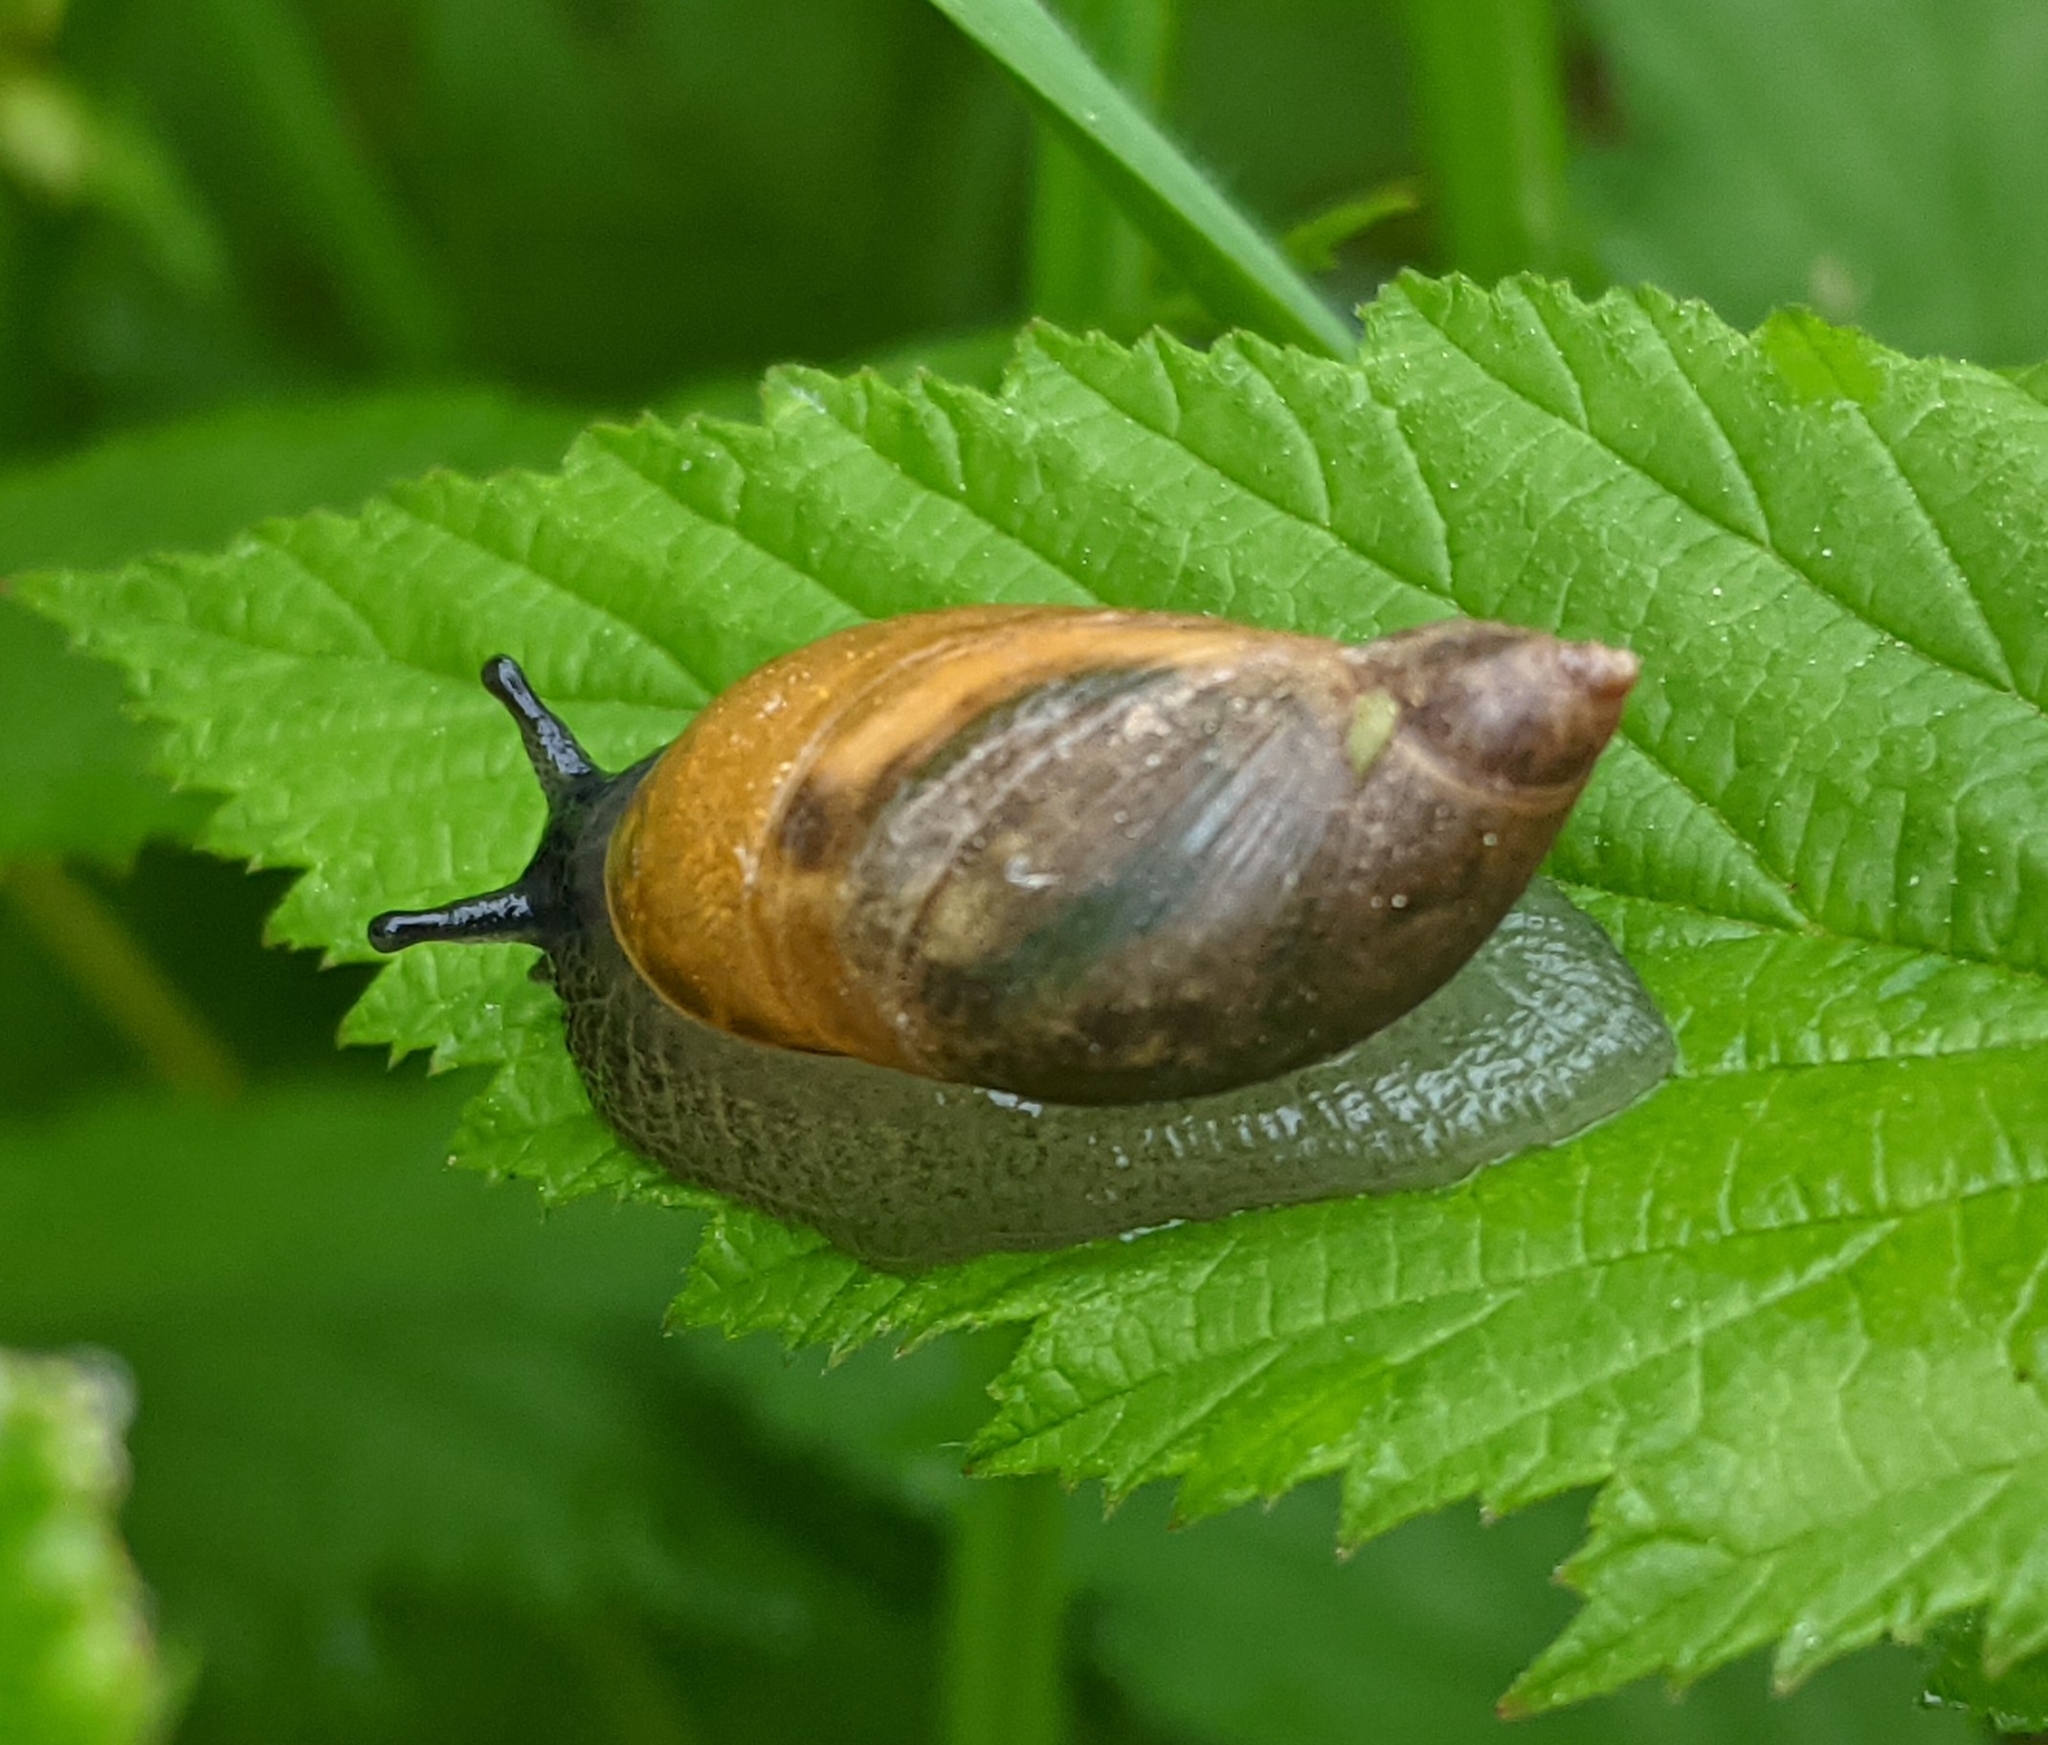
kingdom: Animalia
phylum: Mollusca
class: Gastropoda
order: Stylommatophora
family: Succineidae
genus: Succinea
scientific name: Succinea putris
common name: European ambersnail
